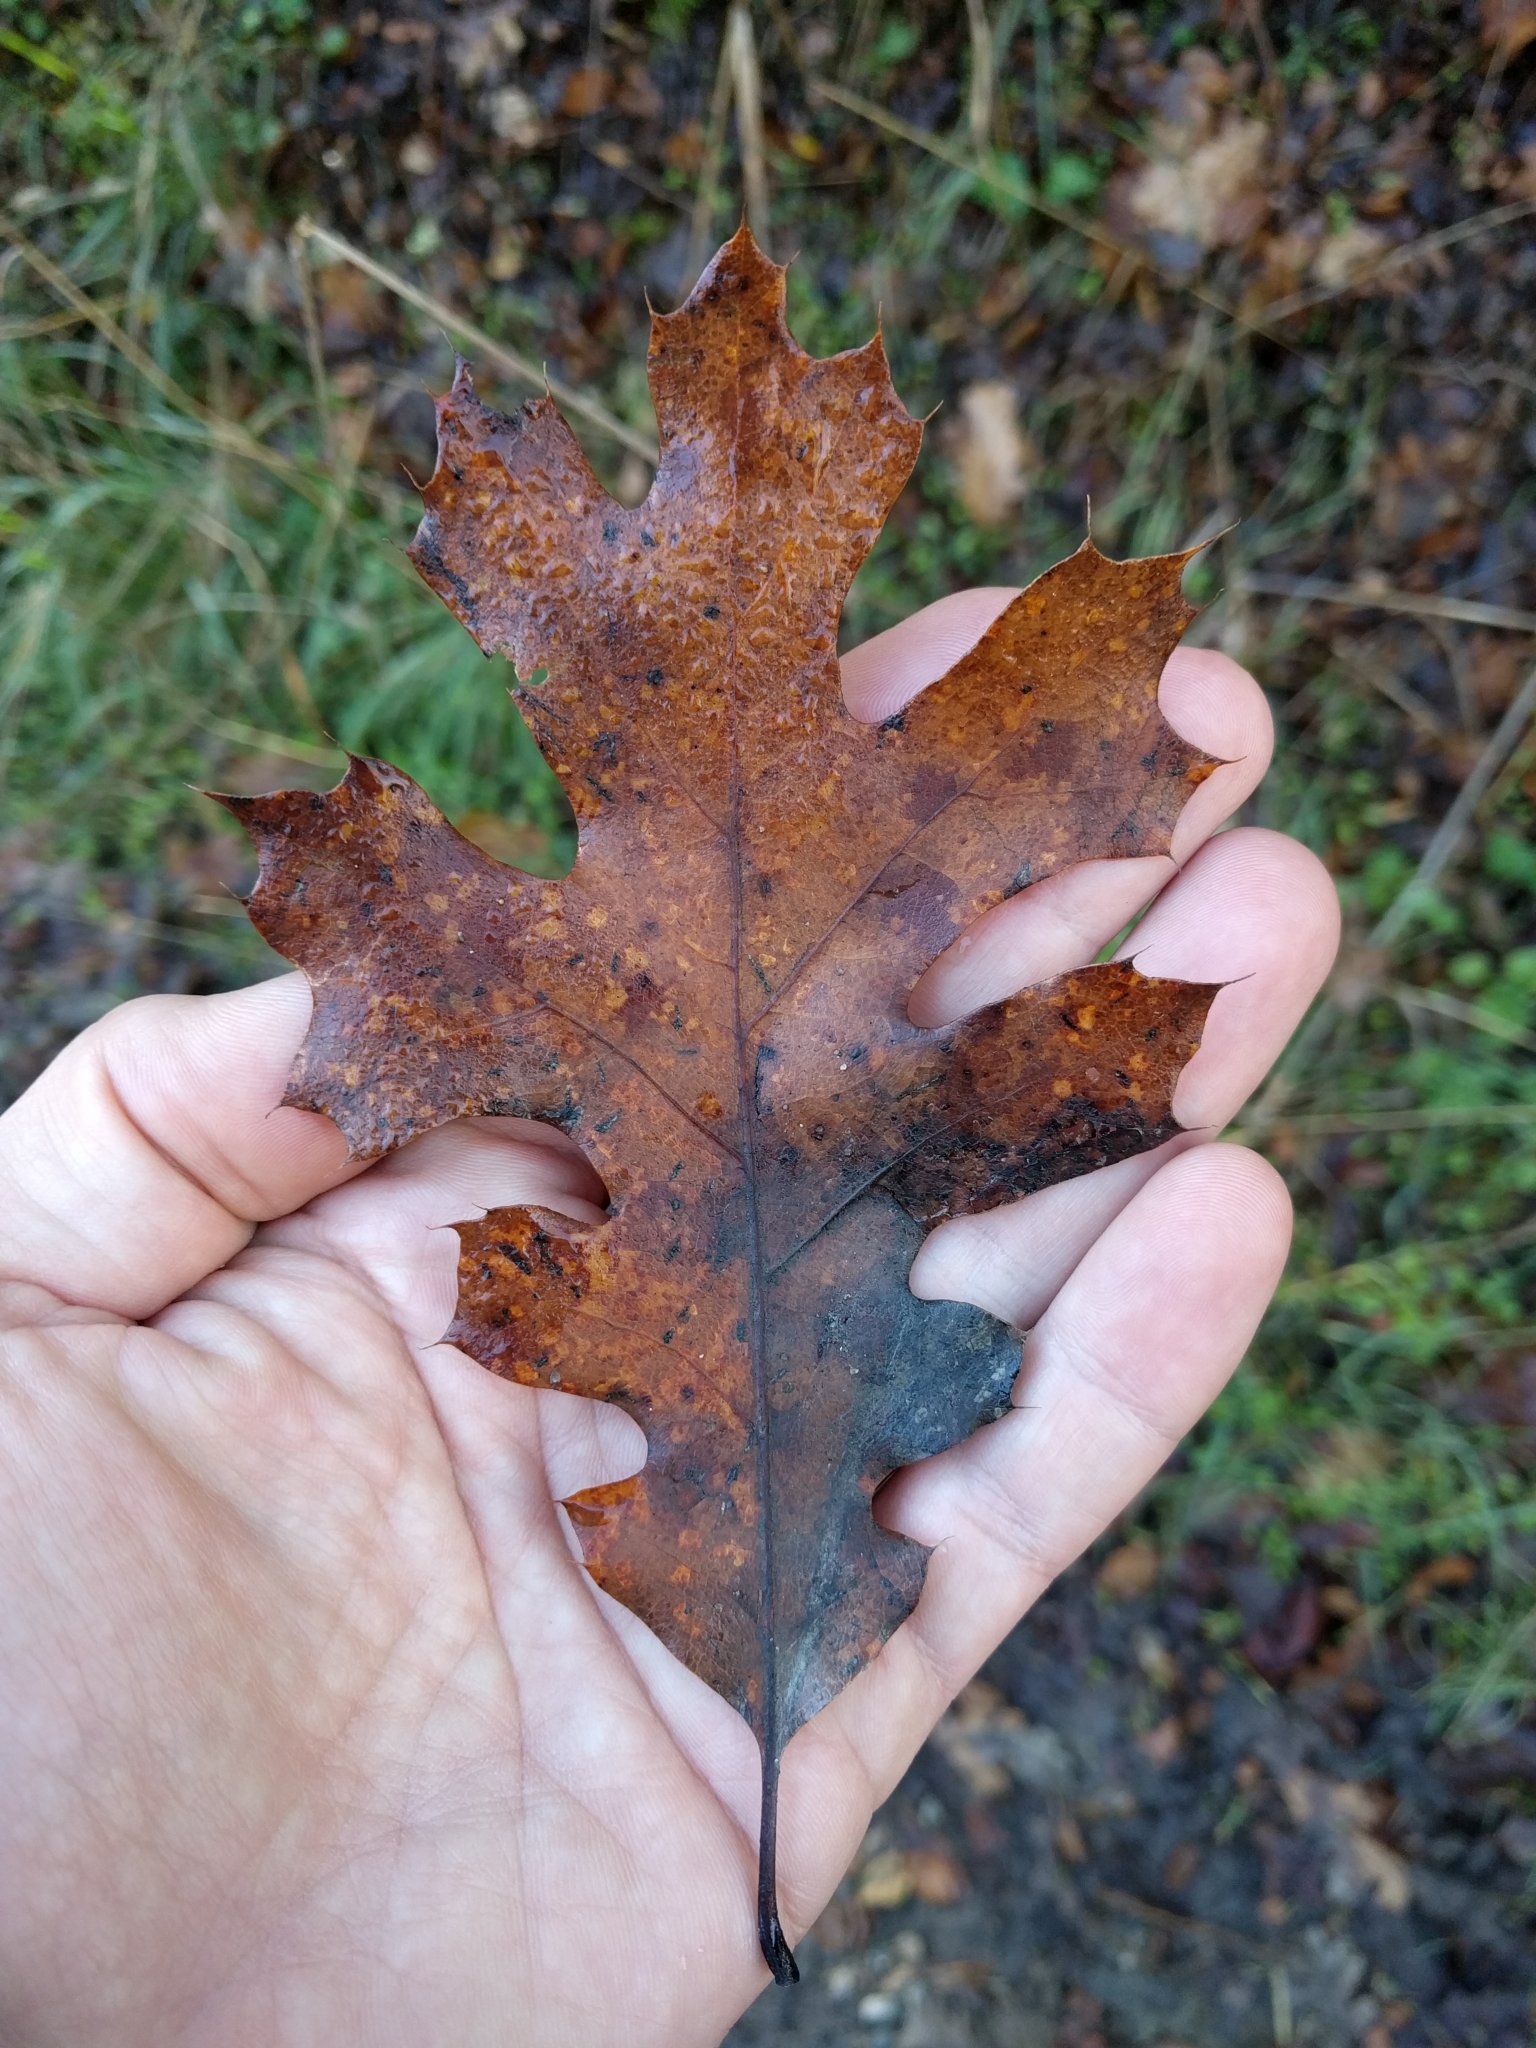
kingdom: Plantae
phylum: Tracheophyta
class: Magnoliopsida
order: Fagales
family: Fagaceae
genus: Quercus
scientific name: Quercus kelloggii
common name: California black oak
